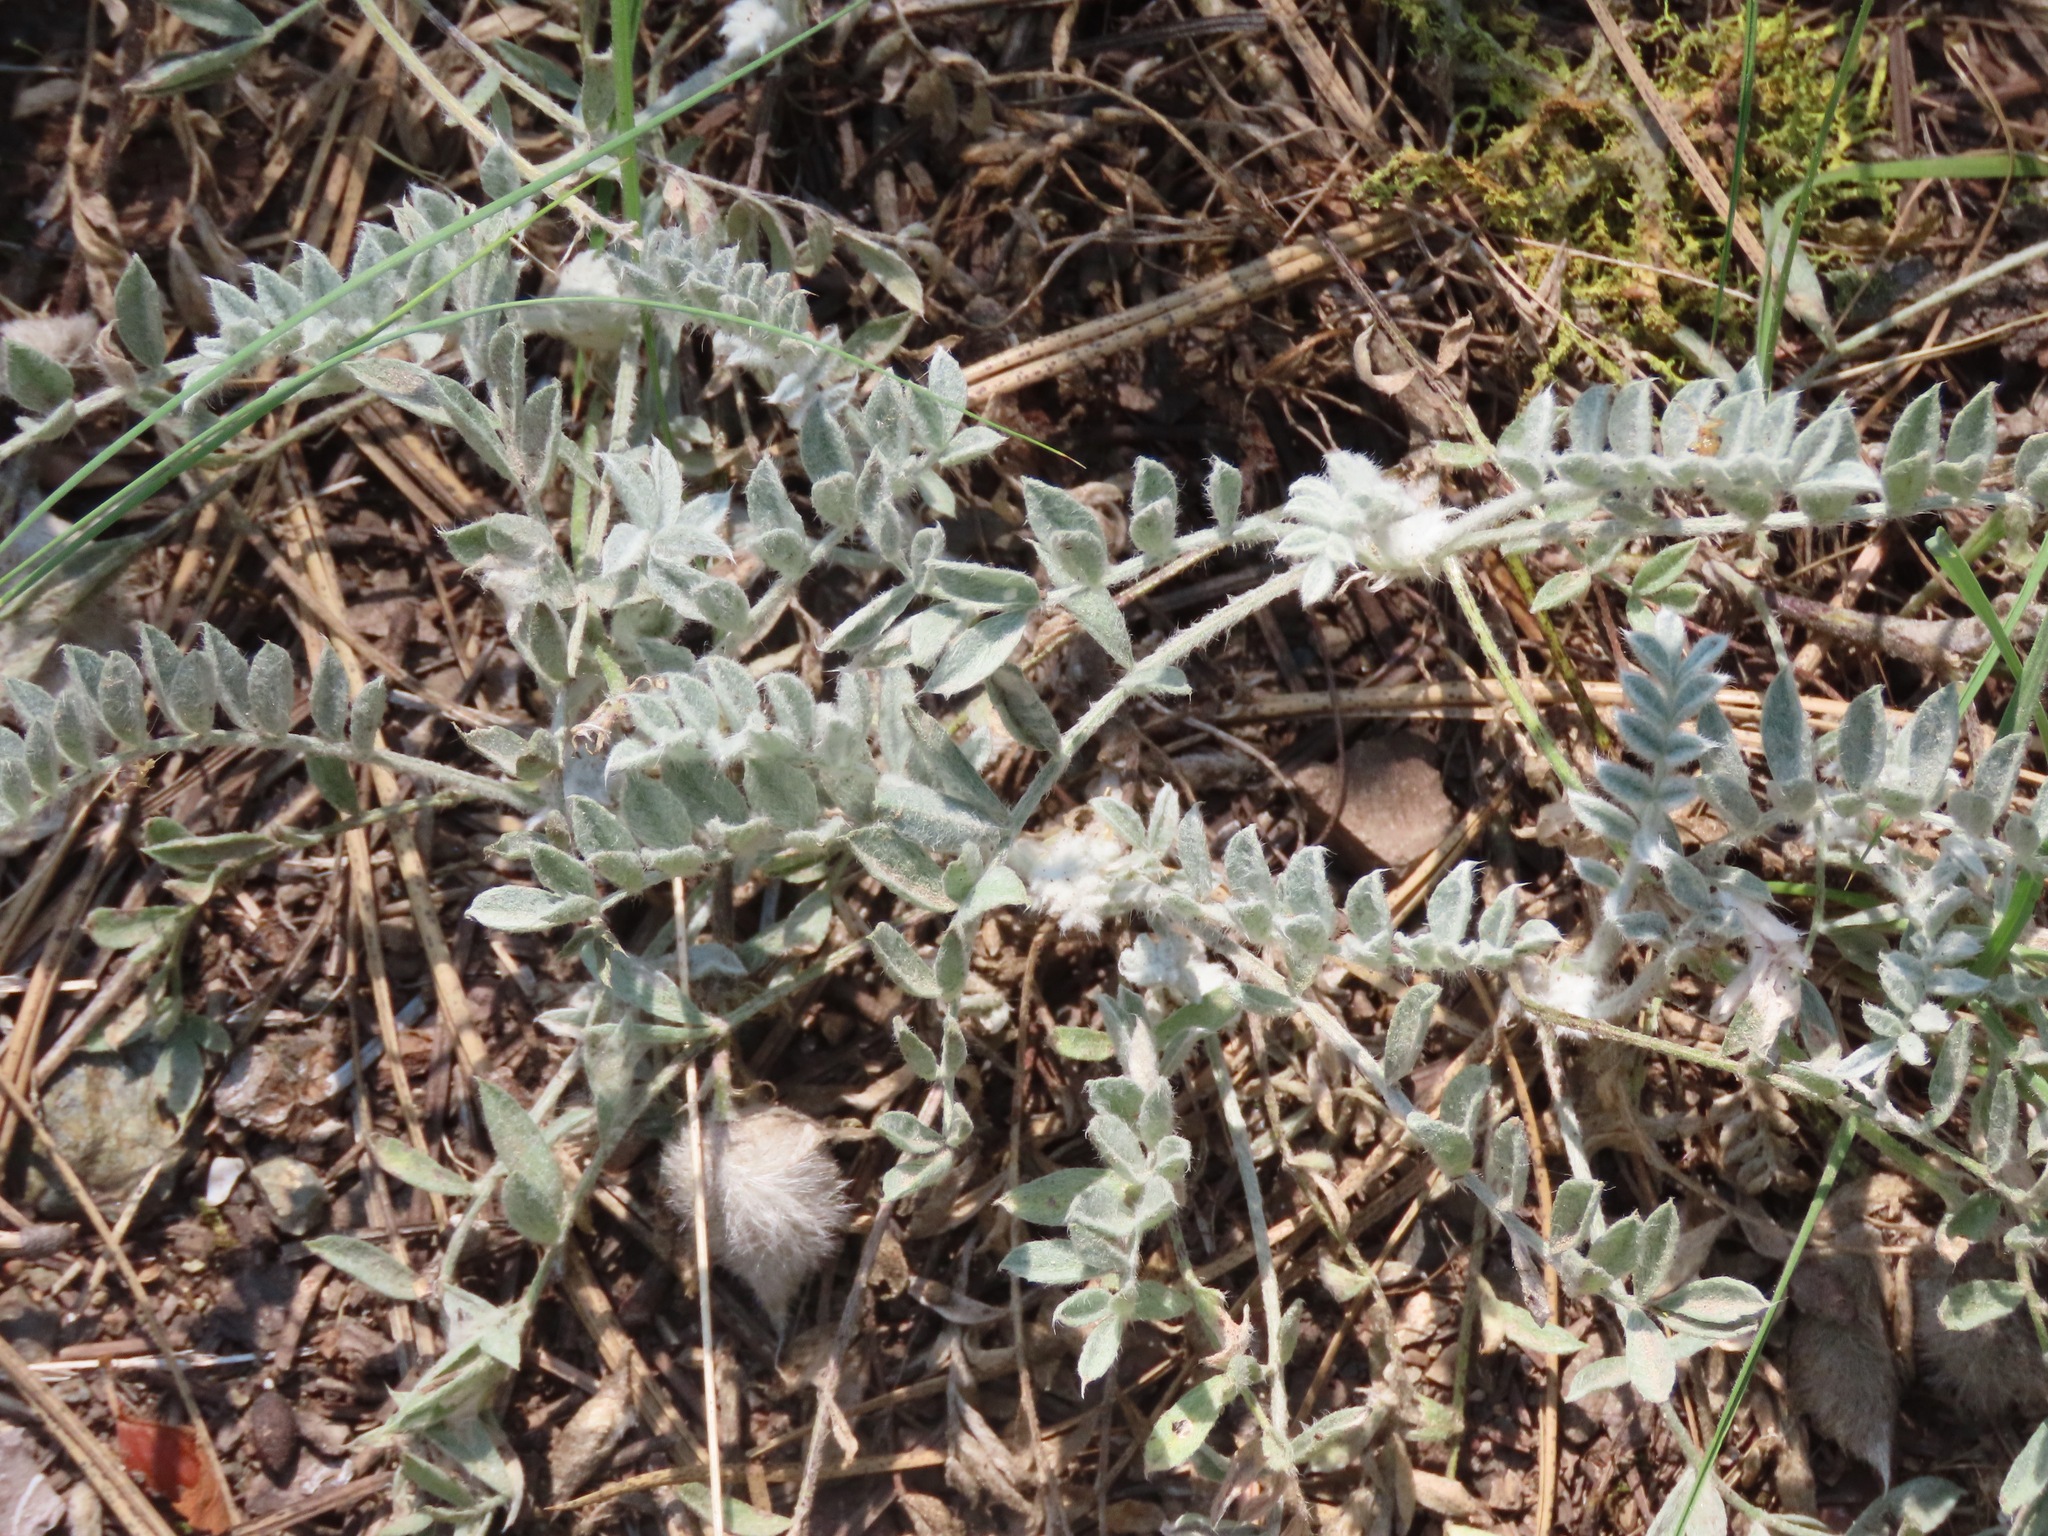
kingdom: Plantae
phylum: Tracheophyta
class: Magnoliopsida
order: Fabales
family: Fabaceae
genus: Astragalus
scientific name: Astragalus purshii
